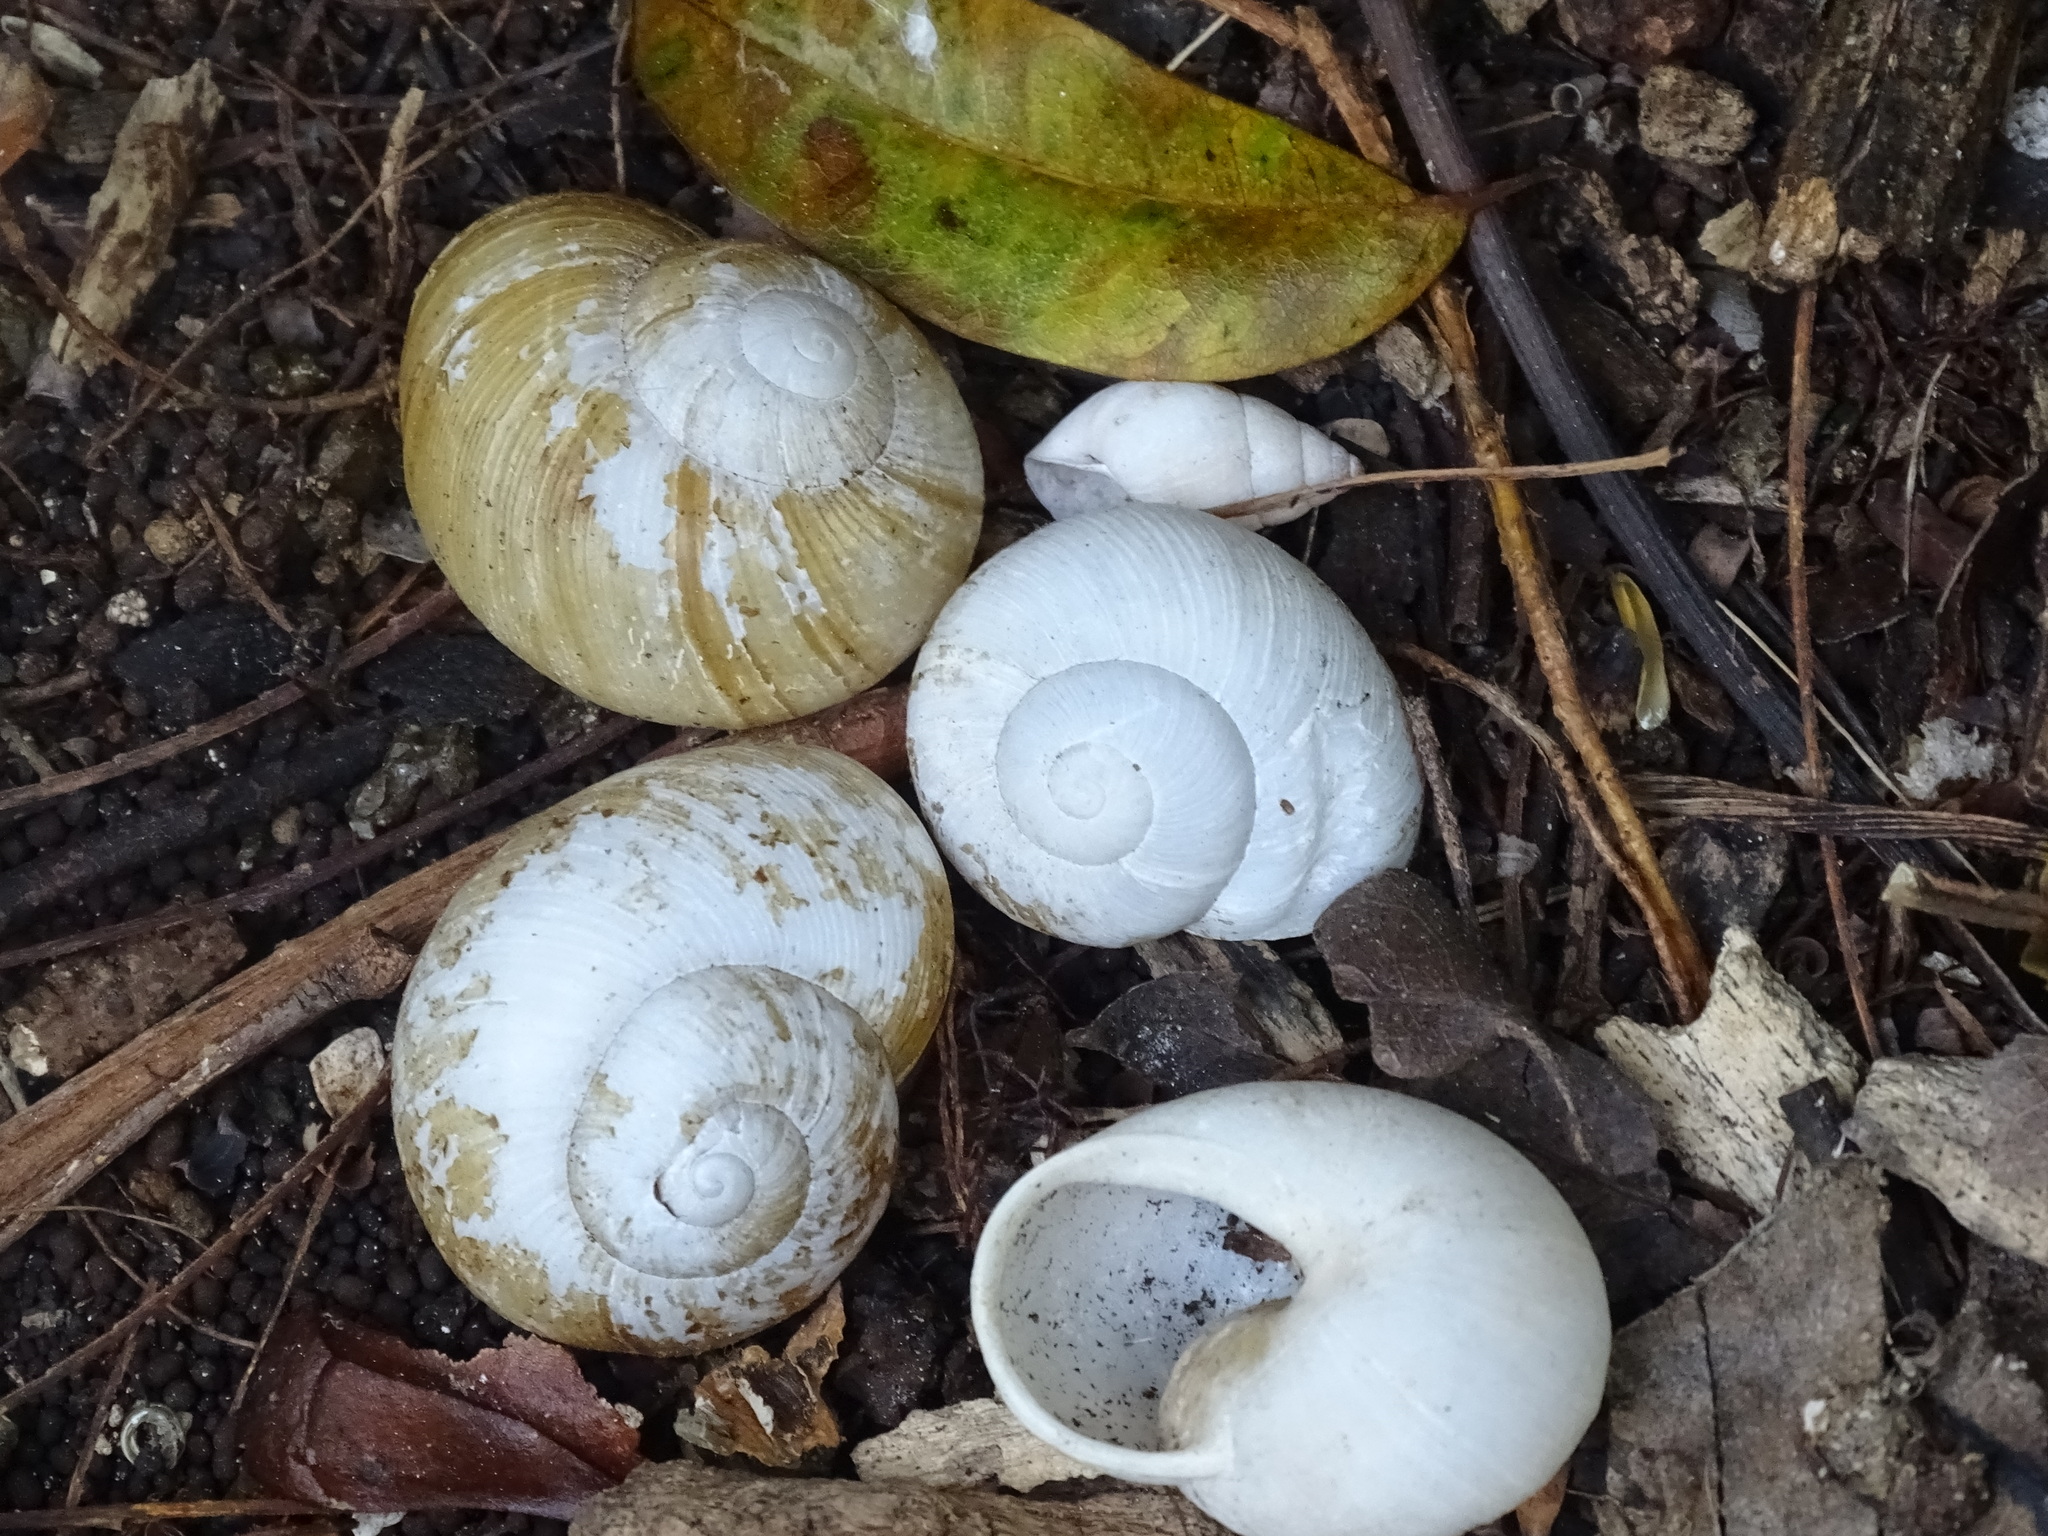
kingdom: Animalia
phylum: Mollusca
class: Gastropoda
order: Stylommatophora
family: Zachrysiidae
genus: Zachrysia
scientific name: Zachrysia provisoria
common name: Garden zachrysia
